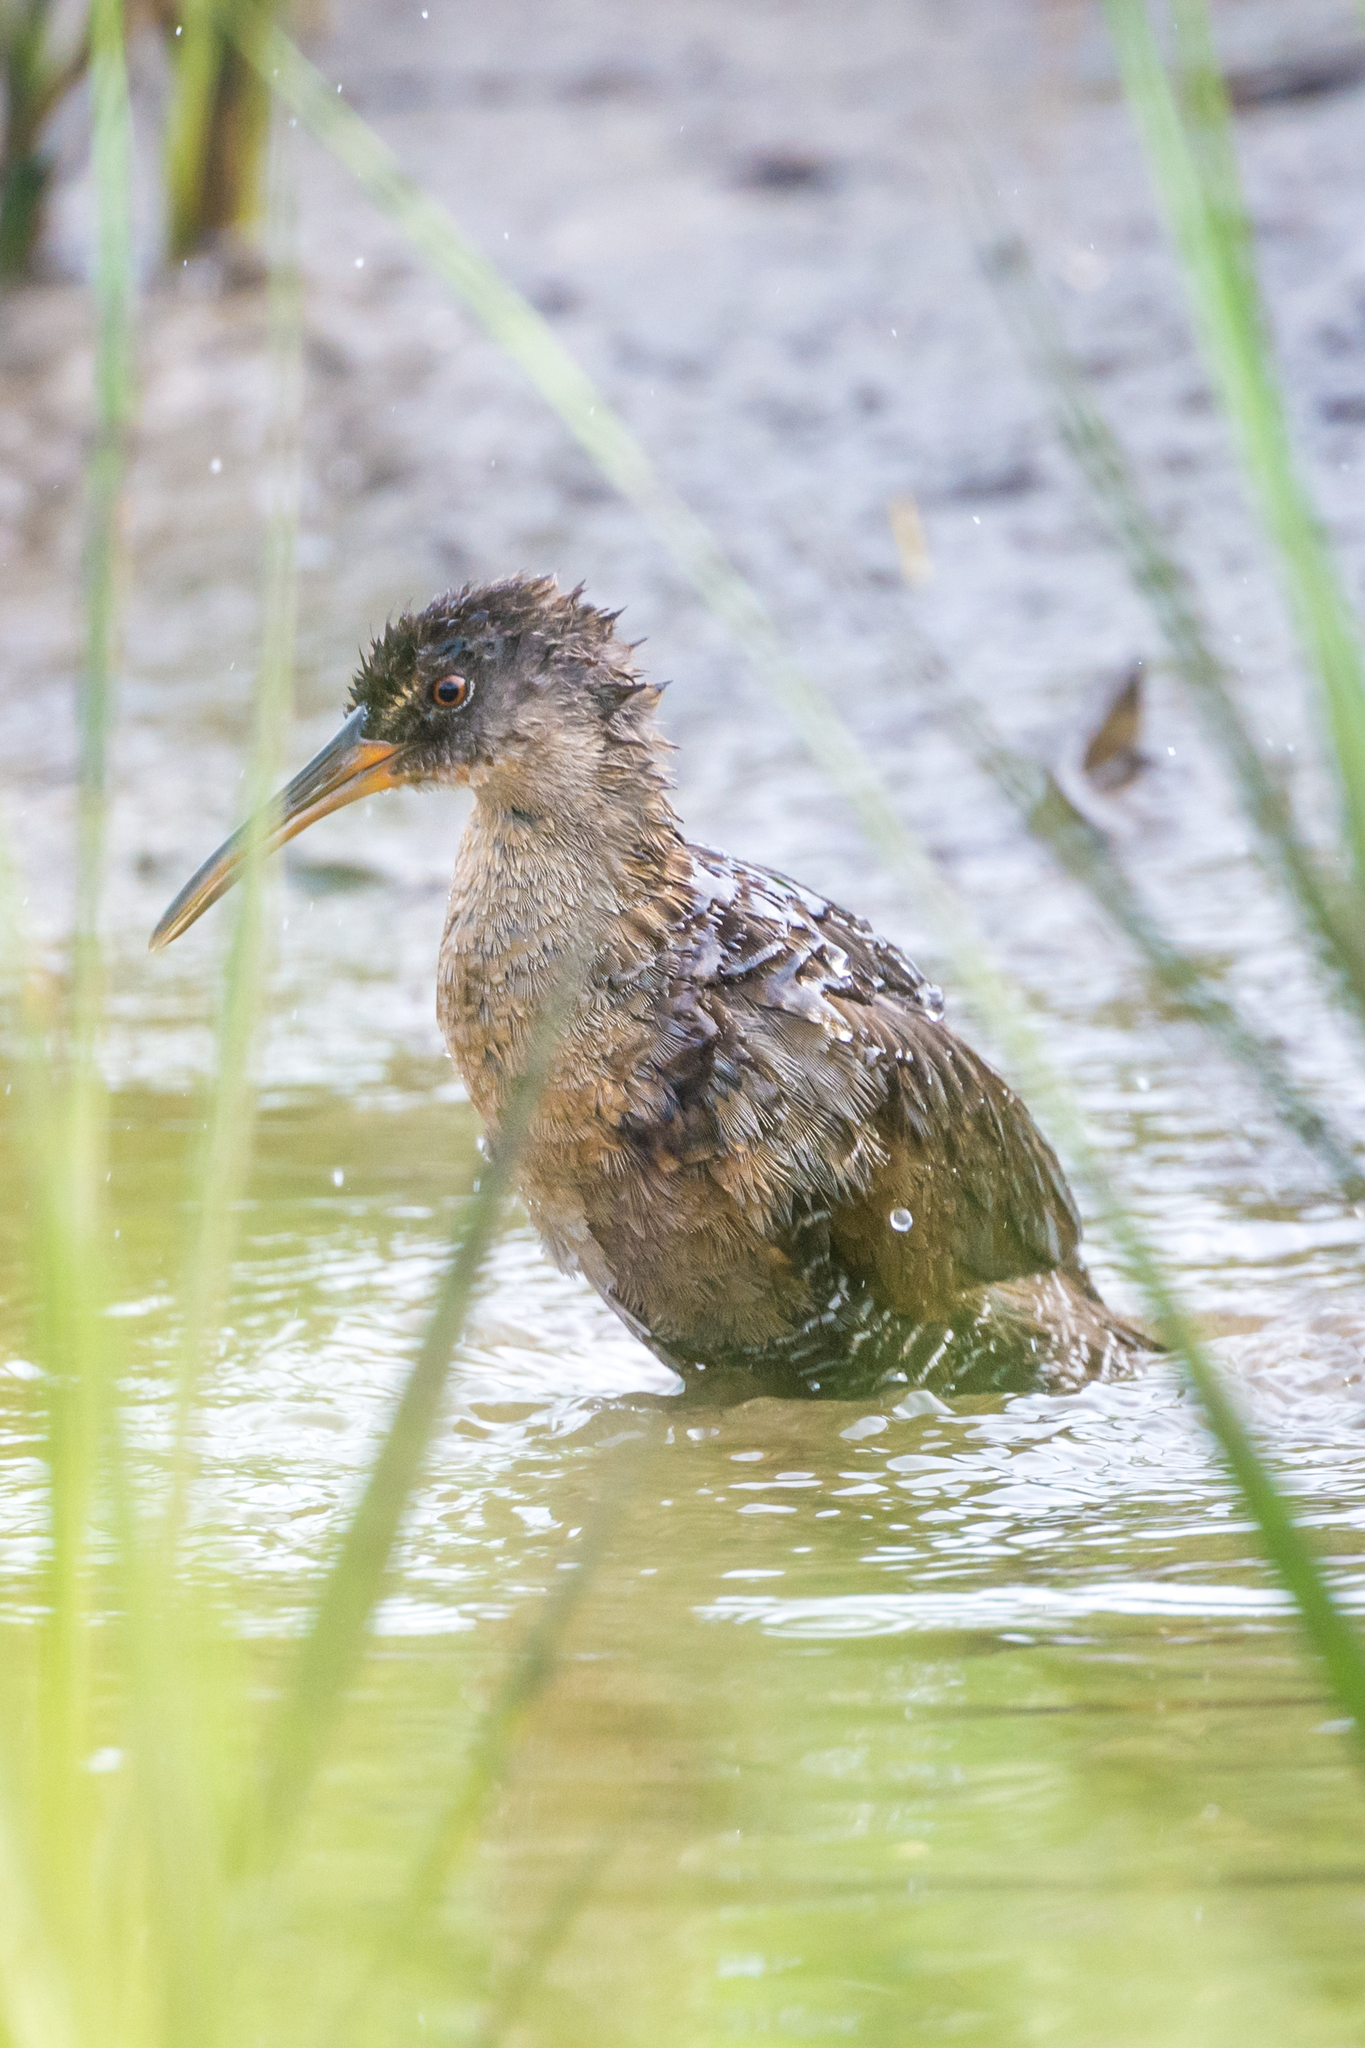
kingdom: Animalia
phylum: Chordata
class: Aves
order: Gruiformes
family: Rallidae
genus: Rallus
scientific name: Rallus crepitans
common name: Clapper rail
